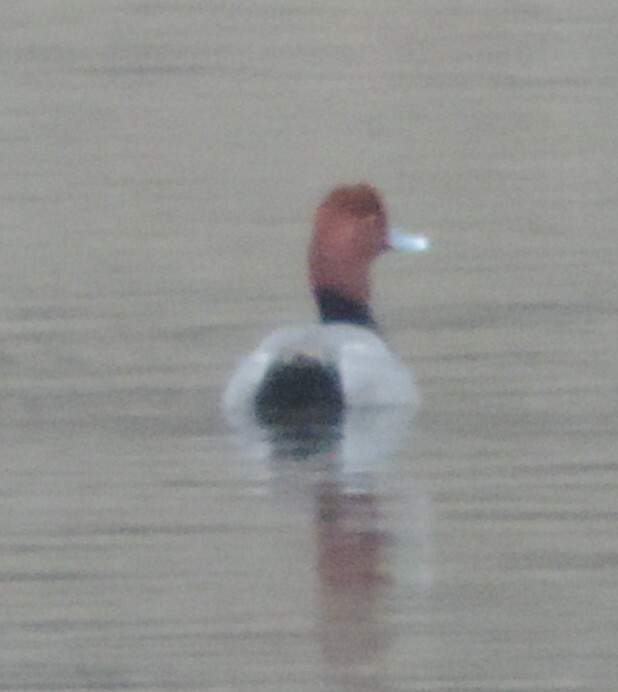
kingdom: Animalia
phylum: Chordata
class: Aves
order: Anseriformes
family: Anatidae
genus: Aythya
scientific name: Aythya americana
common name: Redhead
